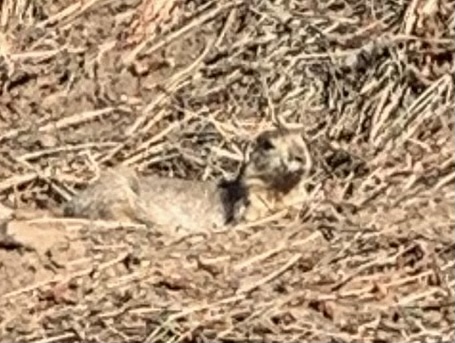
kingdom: Animalia
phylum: Chordata
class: Mammalia
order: Rodentia
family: Sciuridae
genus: Cynomys
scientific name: Cynomys gunnisoni
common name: Gunnison's prairie dog
